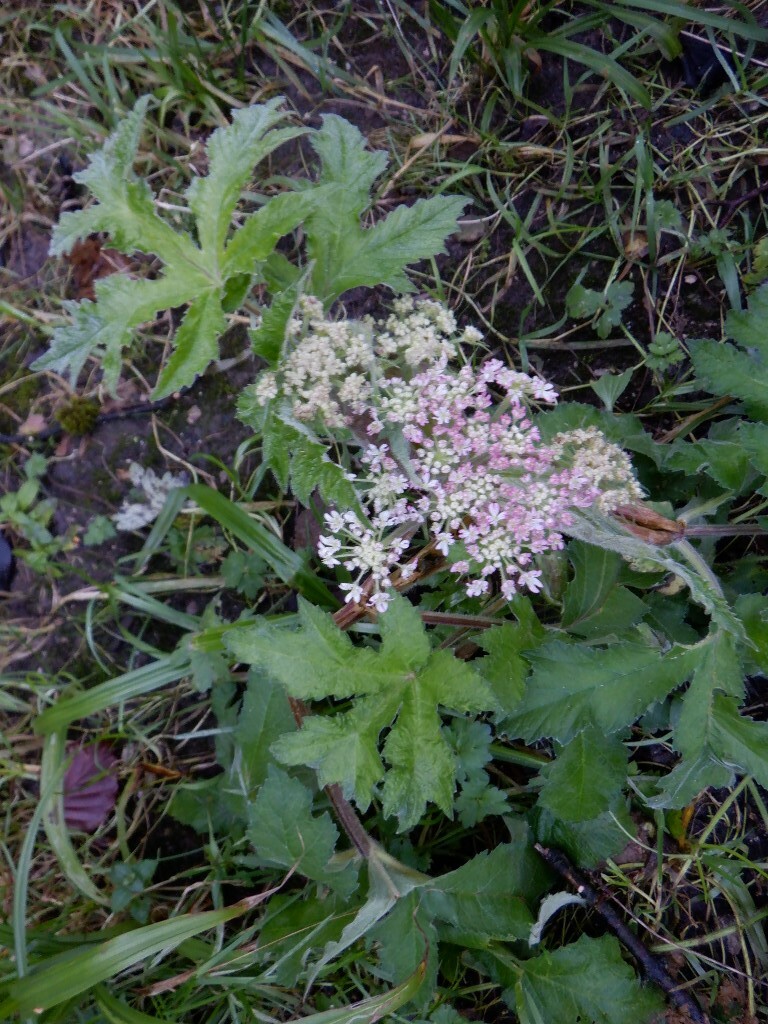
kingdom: Plantae
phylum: Tracheophyta
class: Magnoliopsida
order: Apiales
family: Apiaceae
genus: Heracleum
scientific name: Heracleum sphondylium
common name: Hogweed
